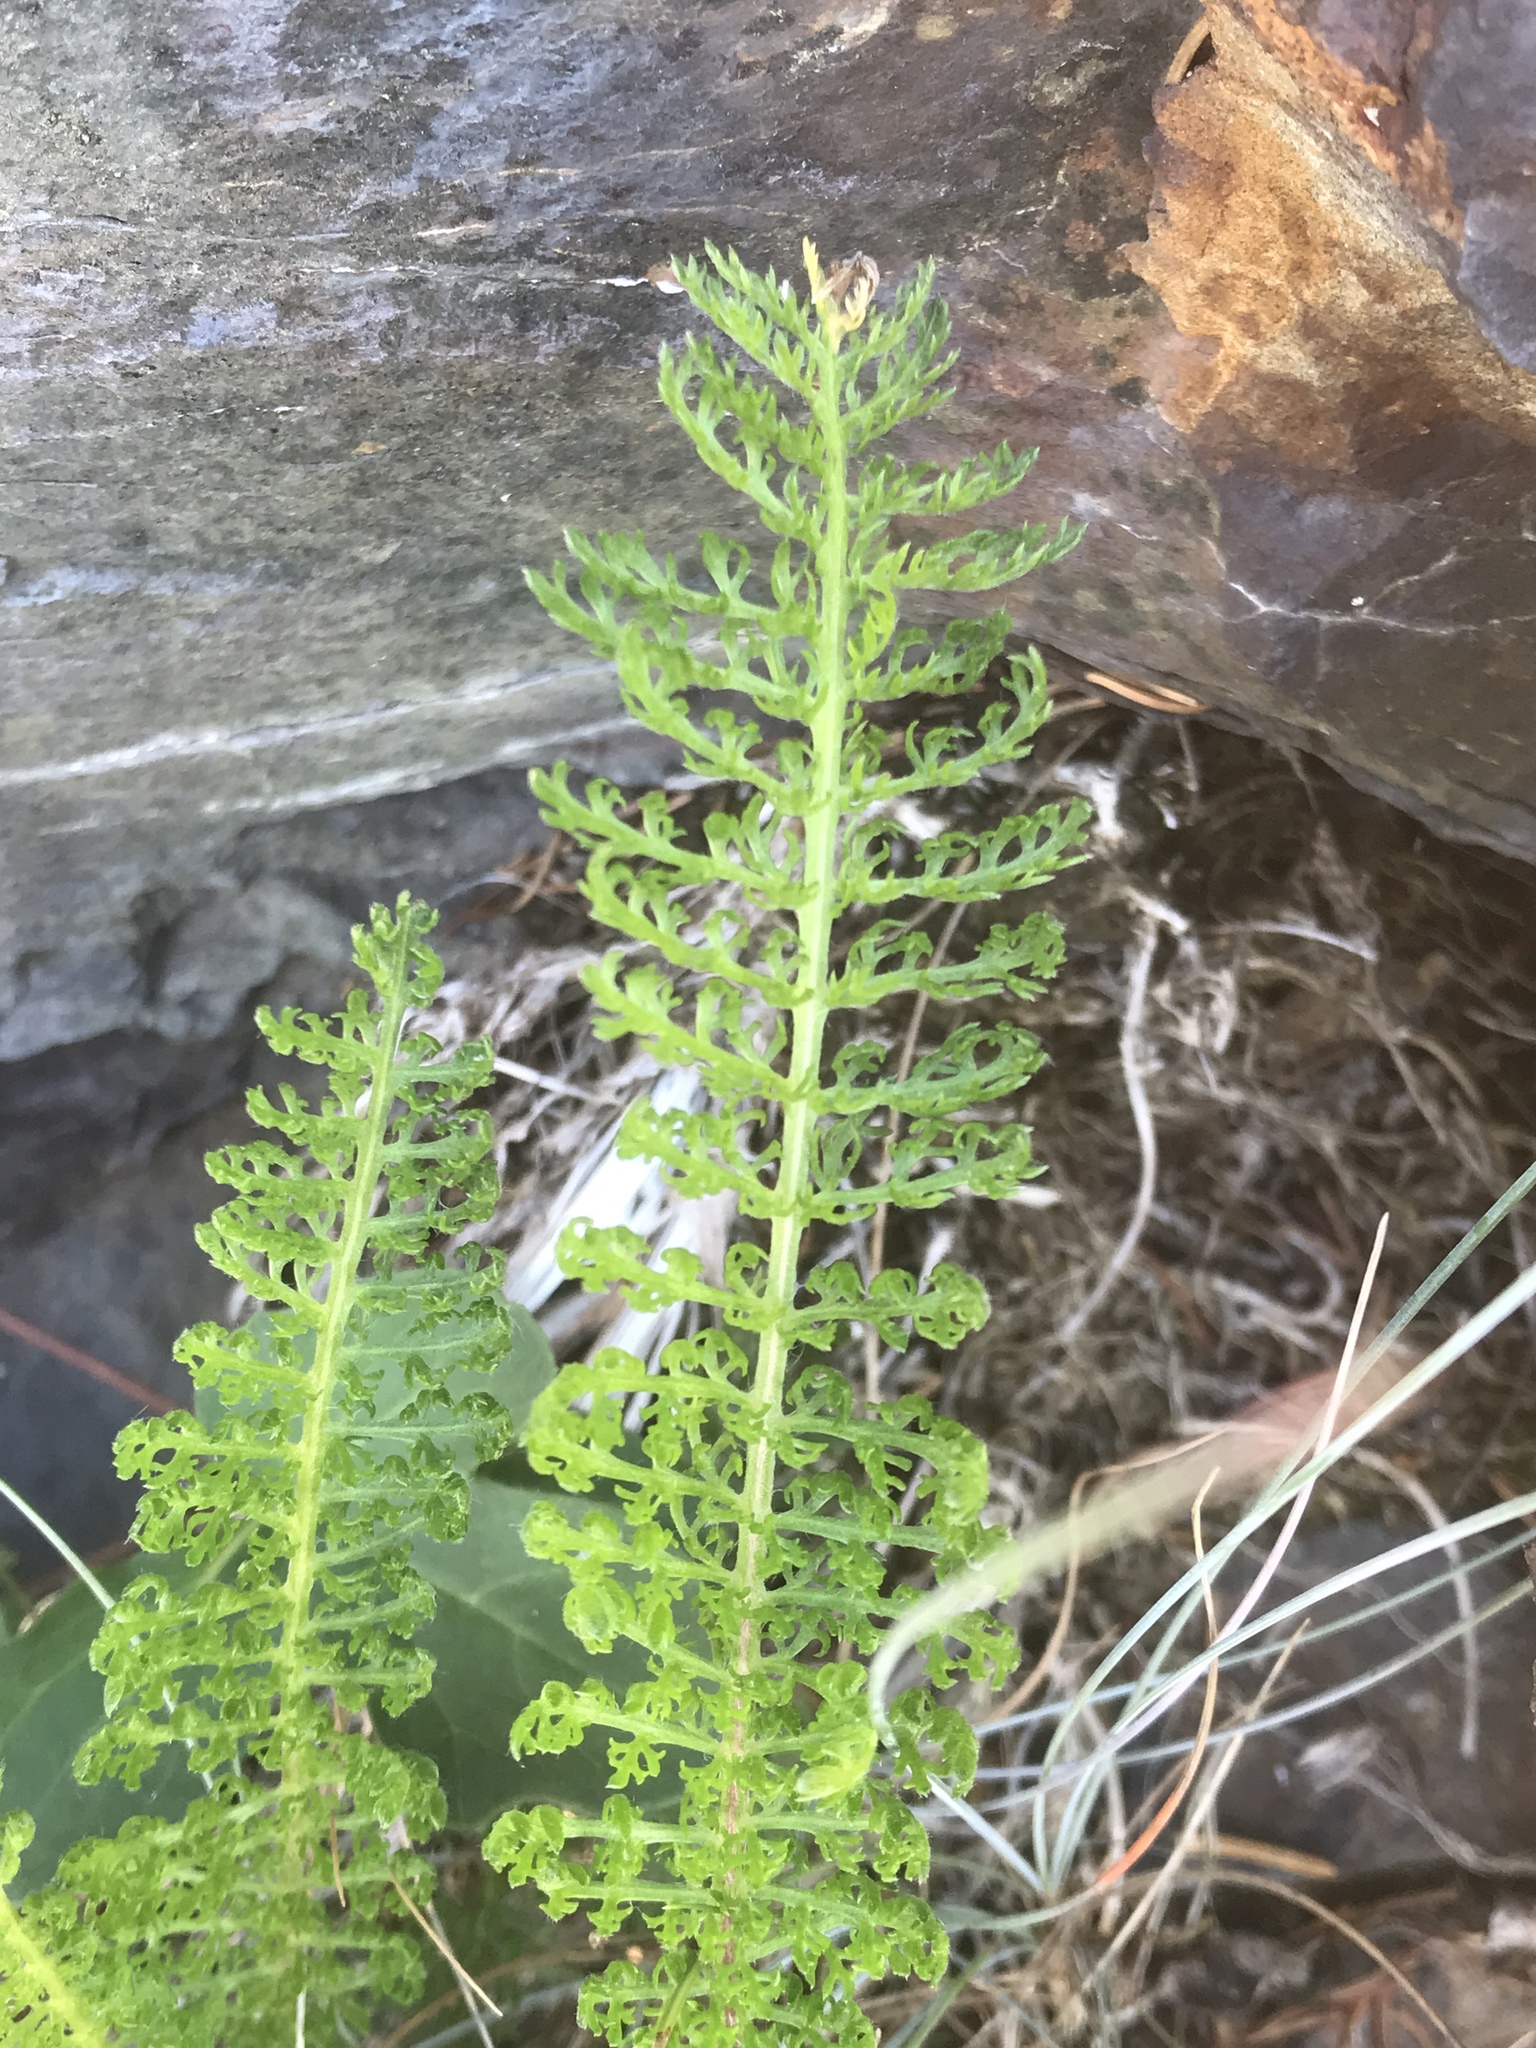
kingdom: Plantae
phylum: Tracheophyta
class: Magnoliopsida
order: Asterales
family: Asteraceae
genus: Achillea
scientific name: Achillea millefolium
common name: Yarrow
